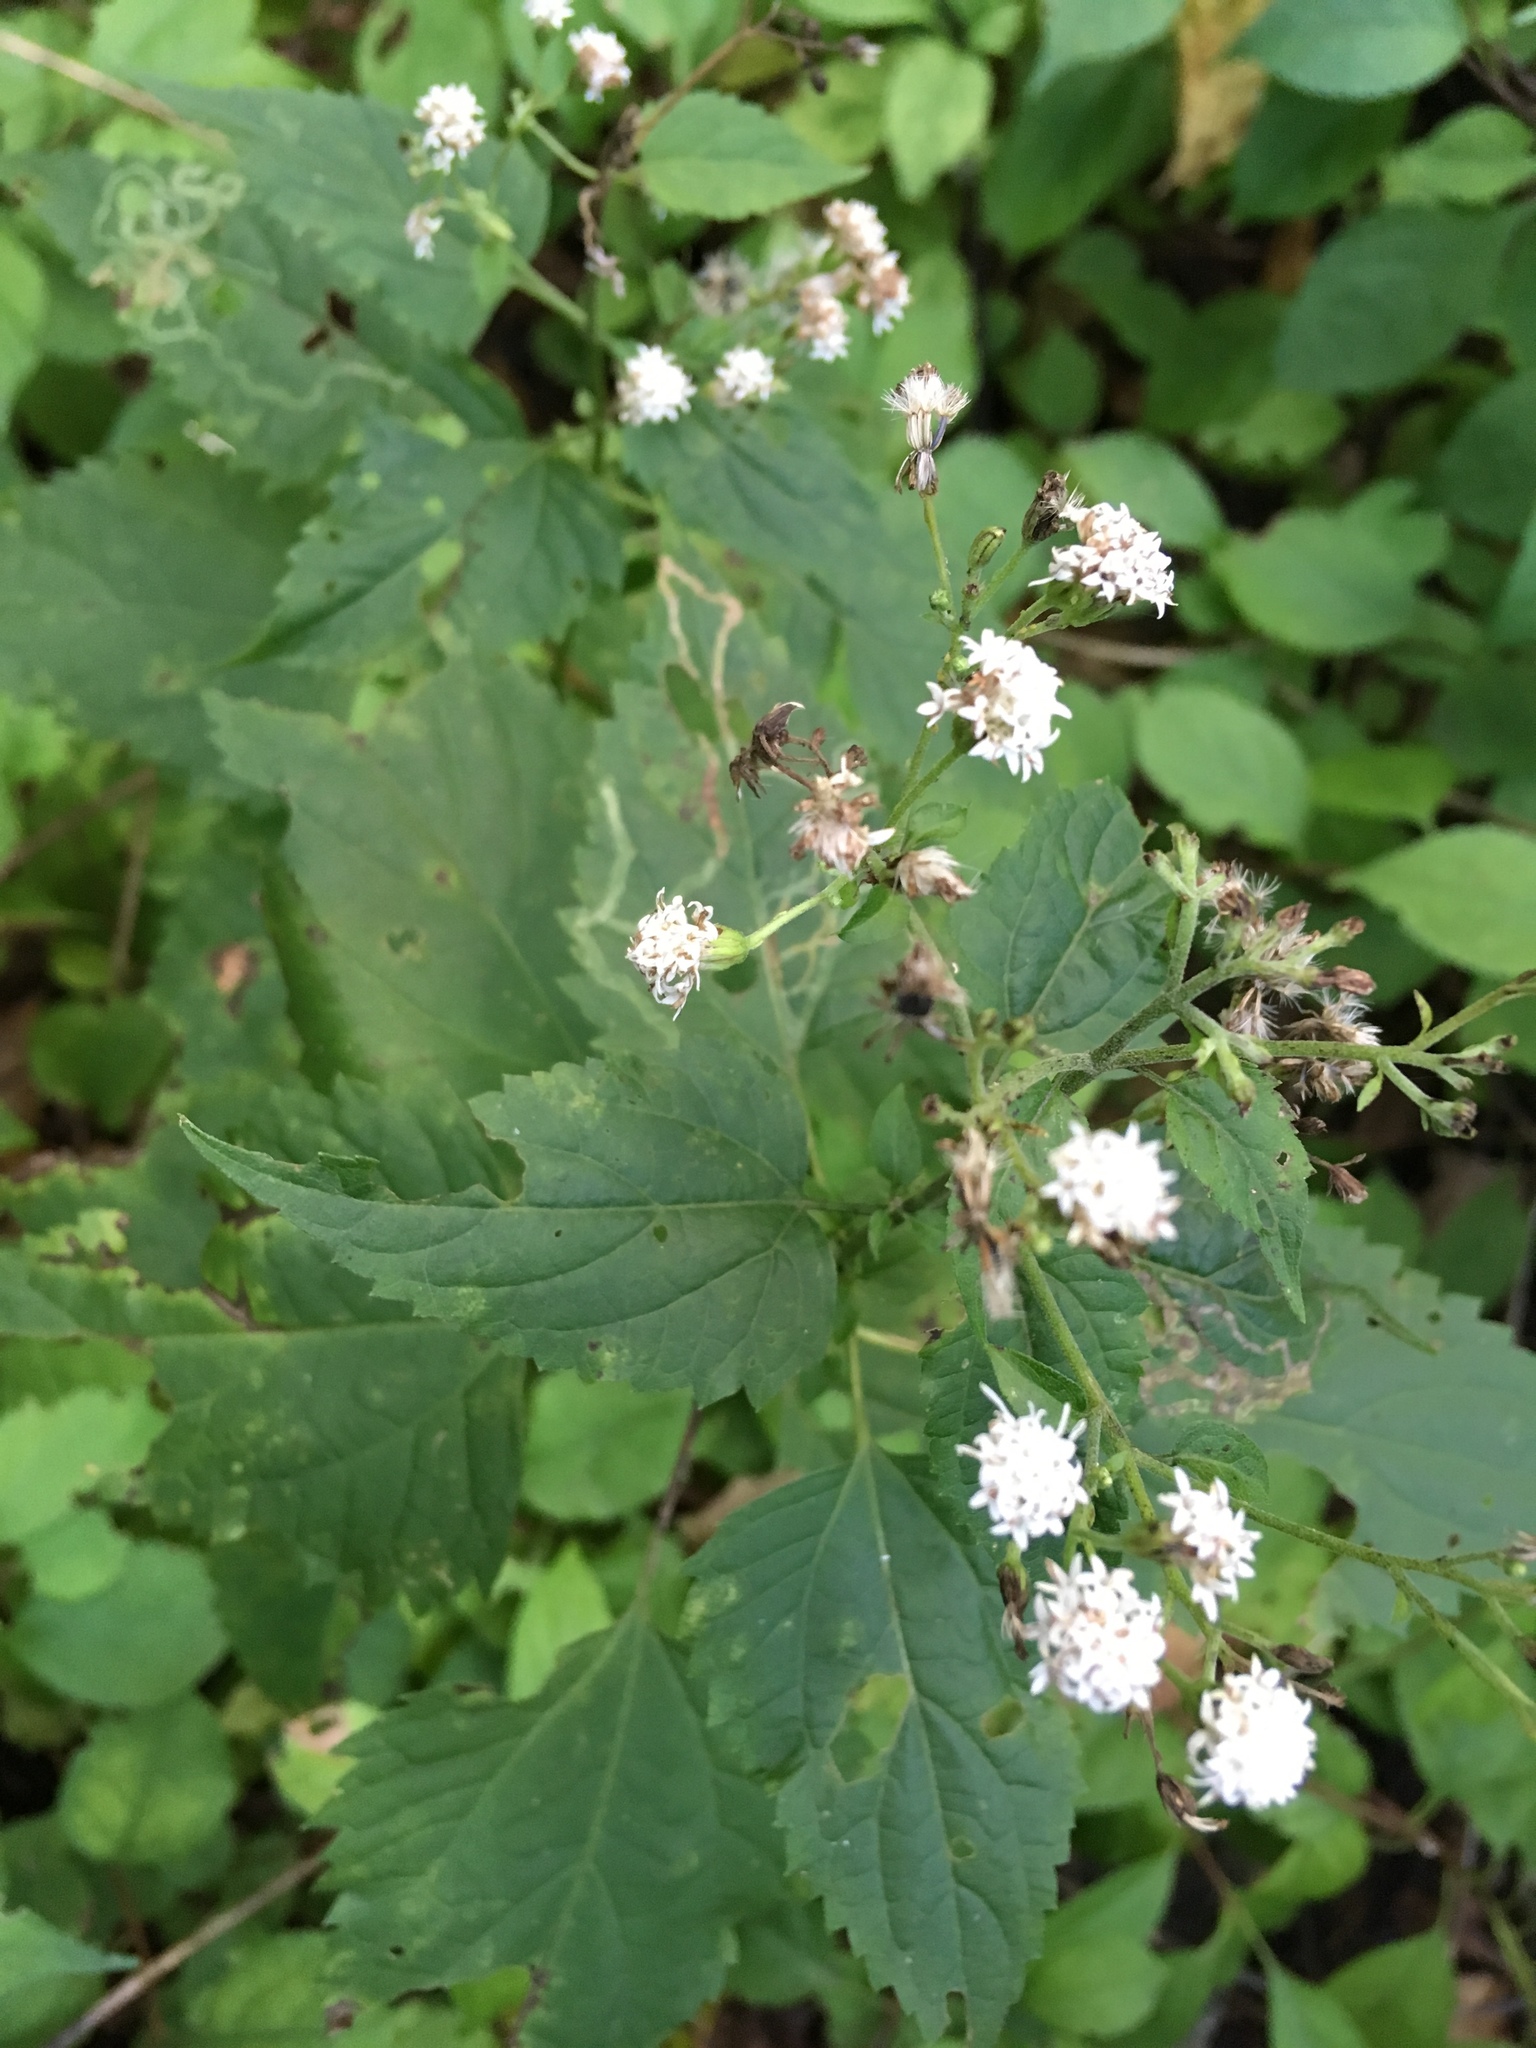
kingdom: Plantae
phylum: Tracheophyta
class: Magnoliopsida
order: Asterales
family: Asteraceae
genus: Ageratina
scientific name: Ageratina altissima
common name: White snakeroot
